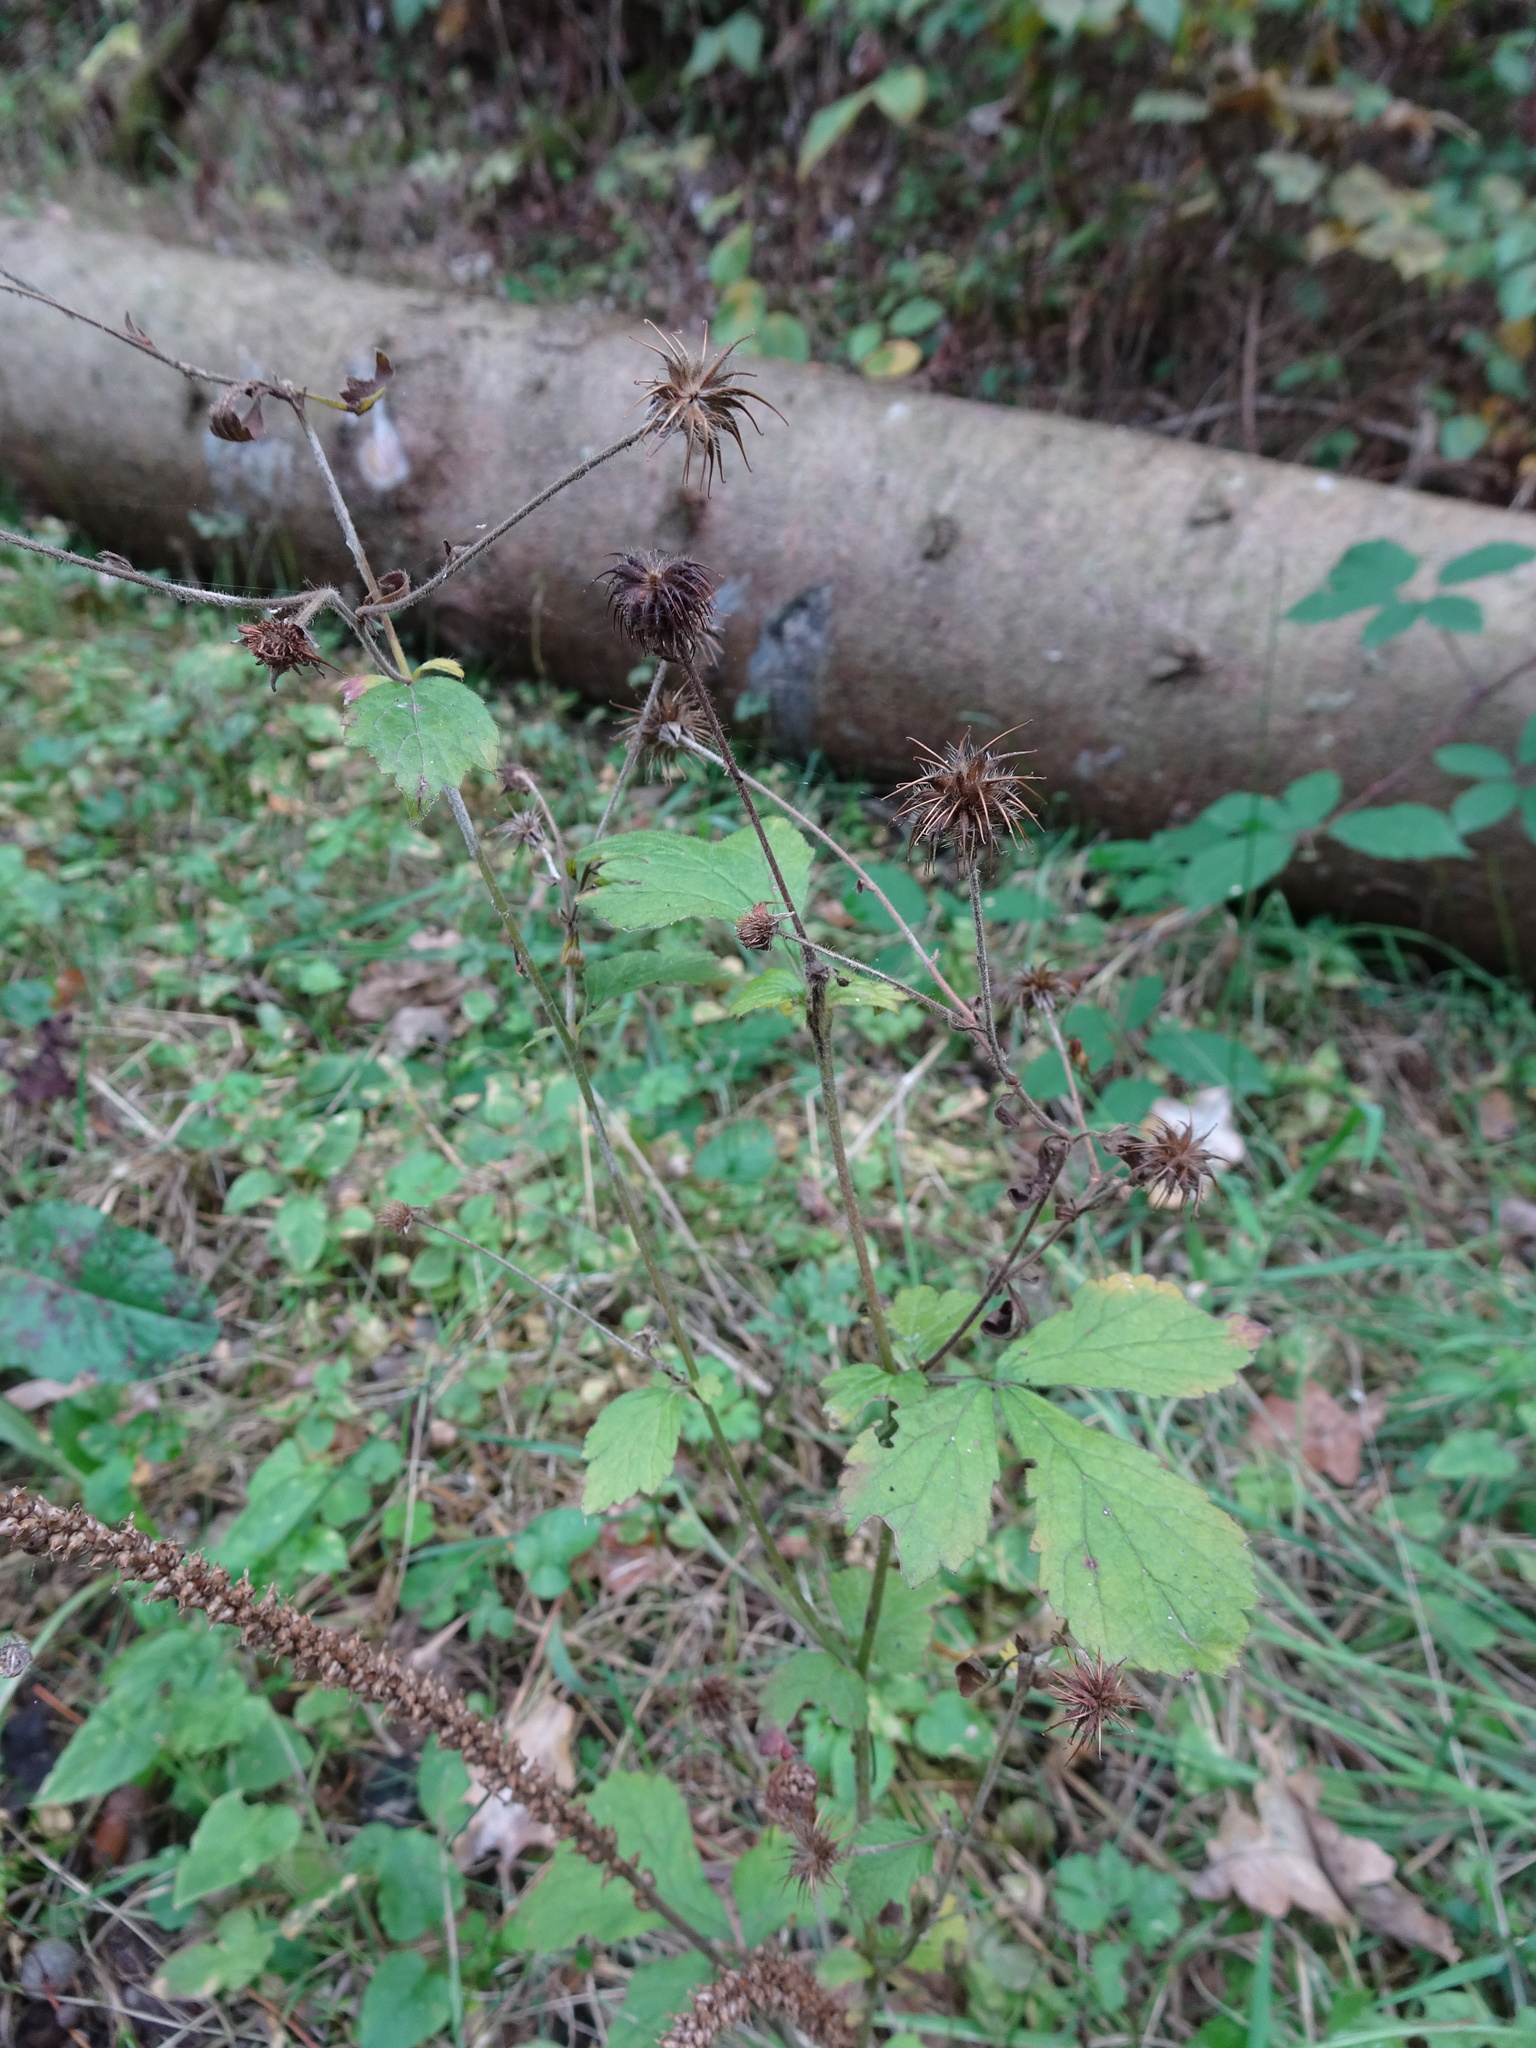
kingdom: Plantae
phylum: Tracheophyta
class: Magnoliopsida
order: Rosales
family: Rosaceae
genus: Geum
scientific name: Geum urbanum
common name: Wood avens
